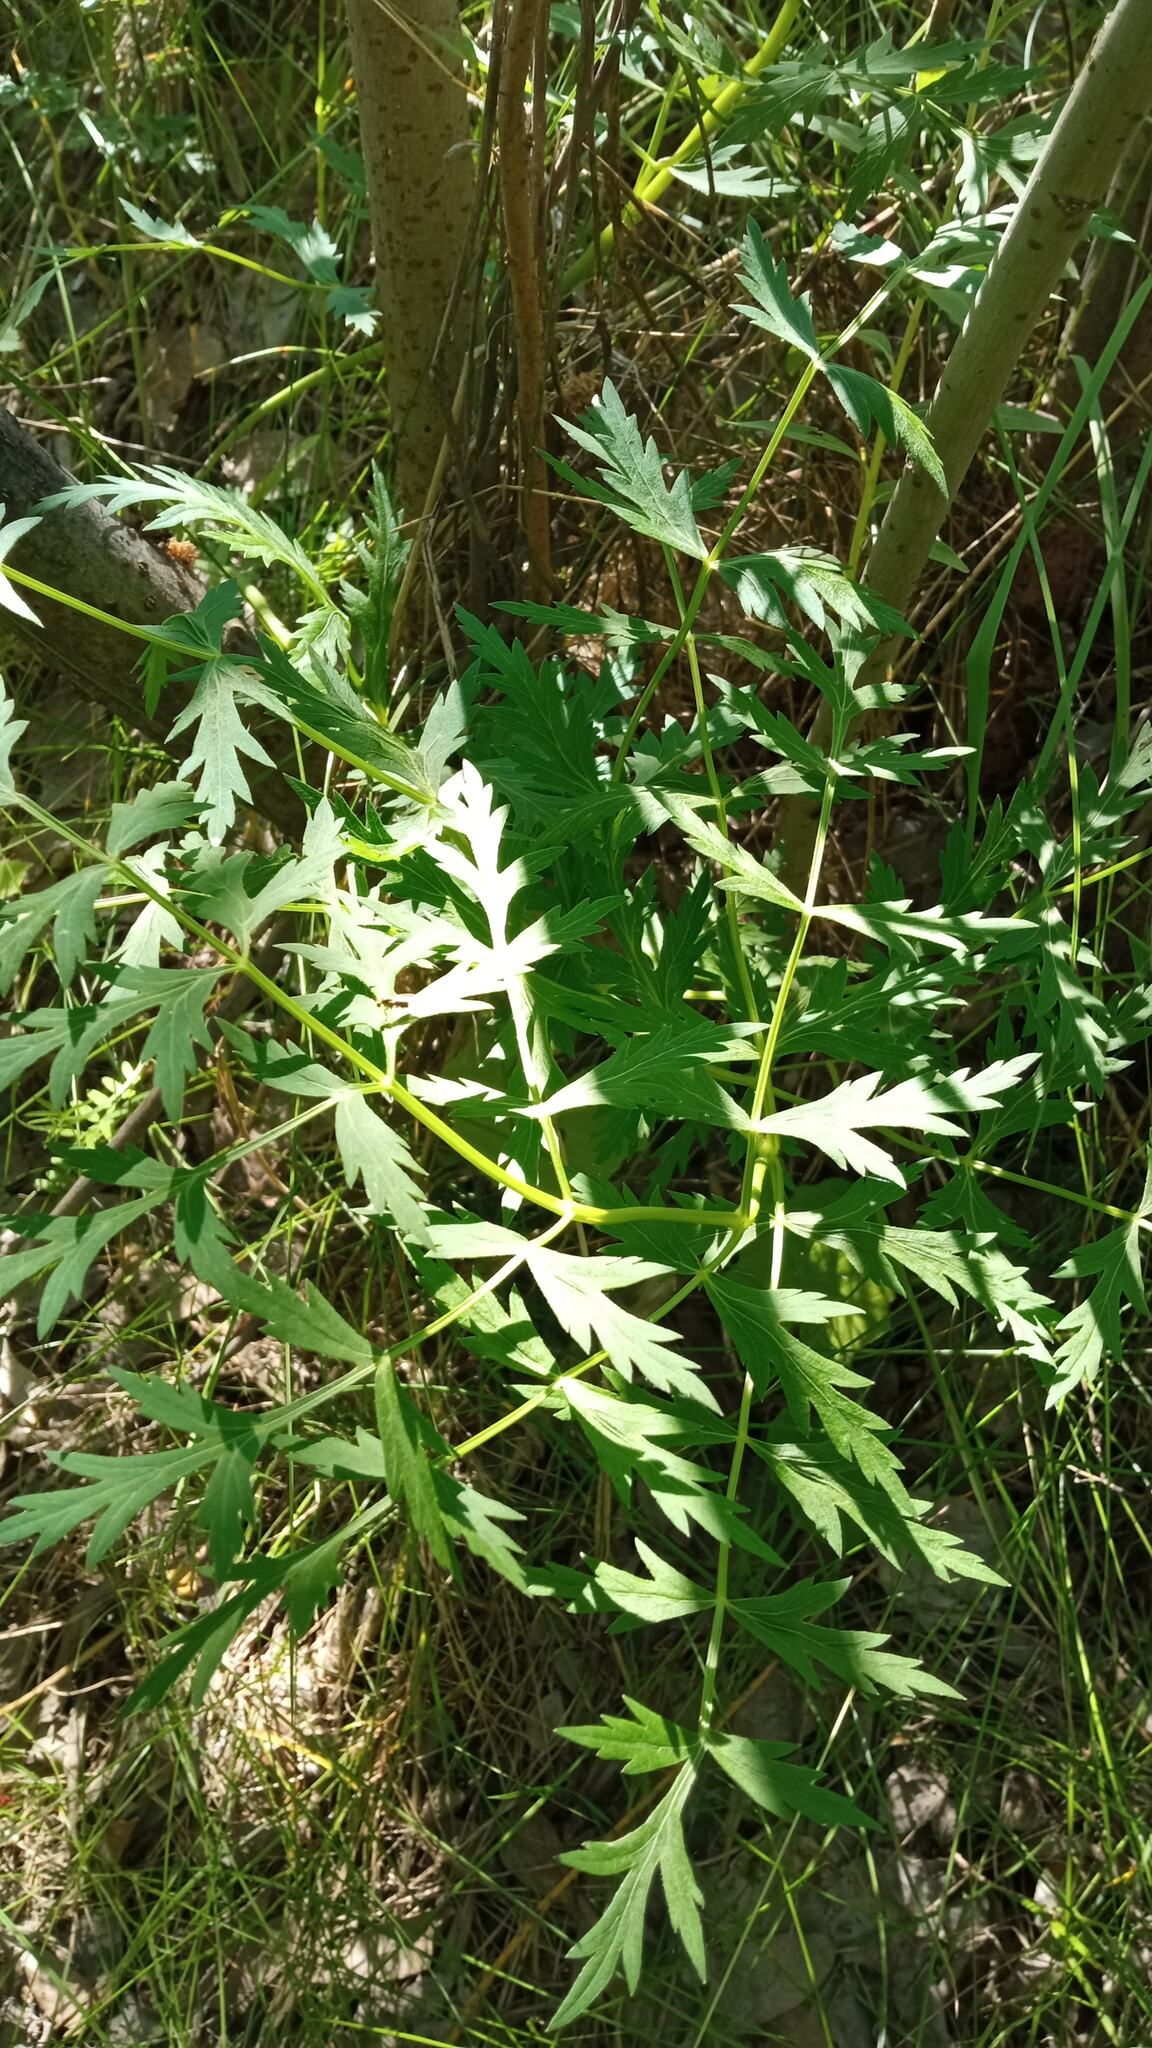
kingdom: Plantae
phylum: Tracheophyta
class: Magnoliopsida
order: Apiales
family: Apiaceae
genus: Seseli
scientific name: Seseli libanotis
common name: Mooncarrot
